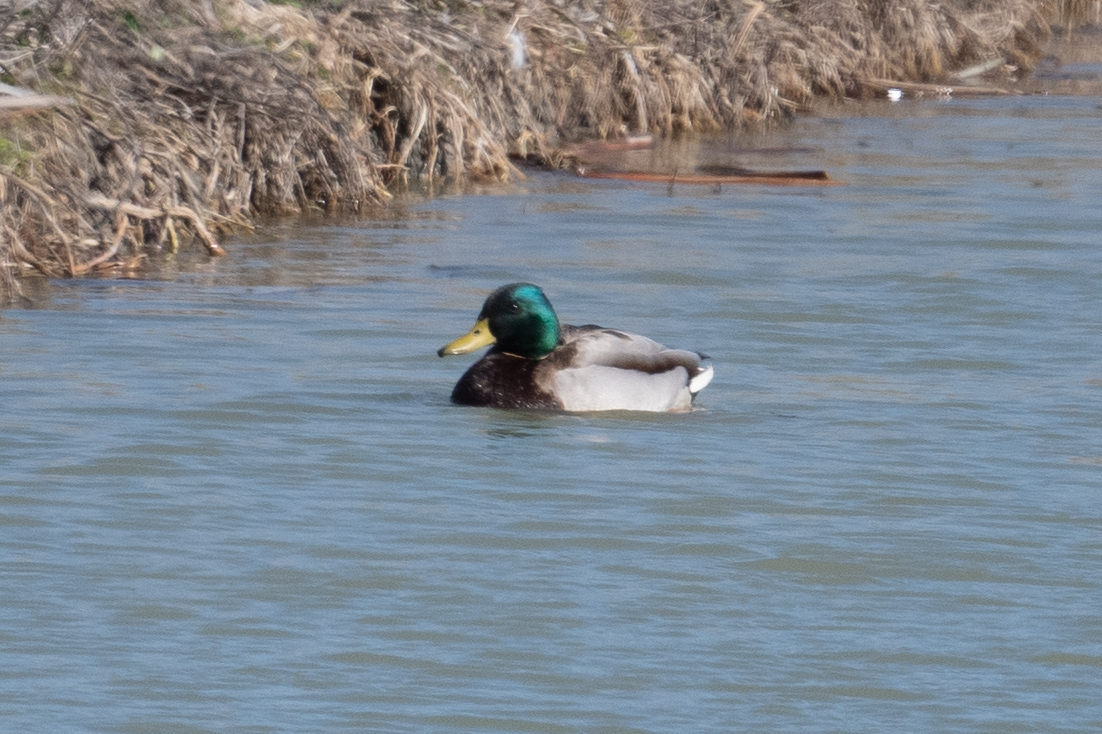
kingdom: Animalia
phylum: Chordata
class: Aves
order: Anseriformes
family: Anatidae
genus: Anas
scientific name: Anas platyrhynchos
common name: Mallard
